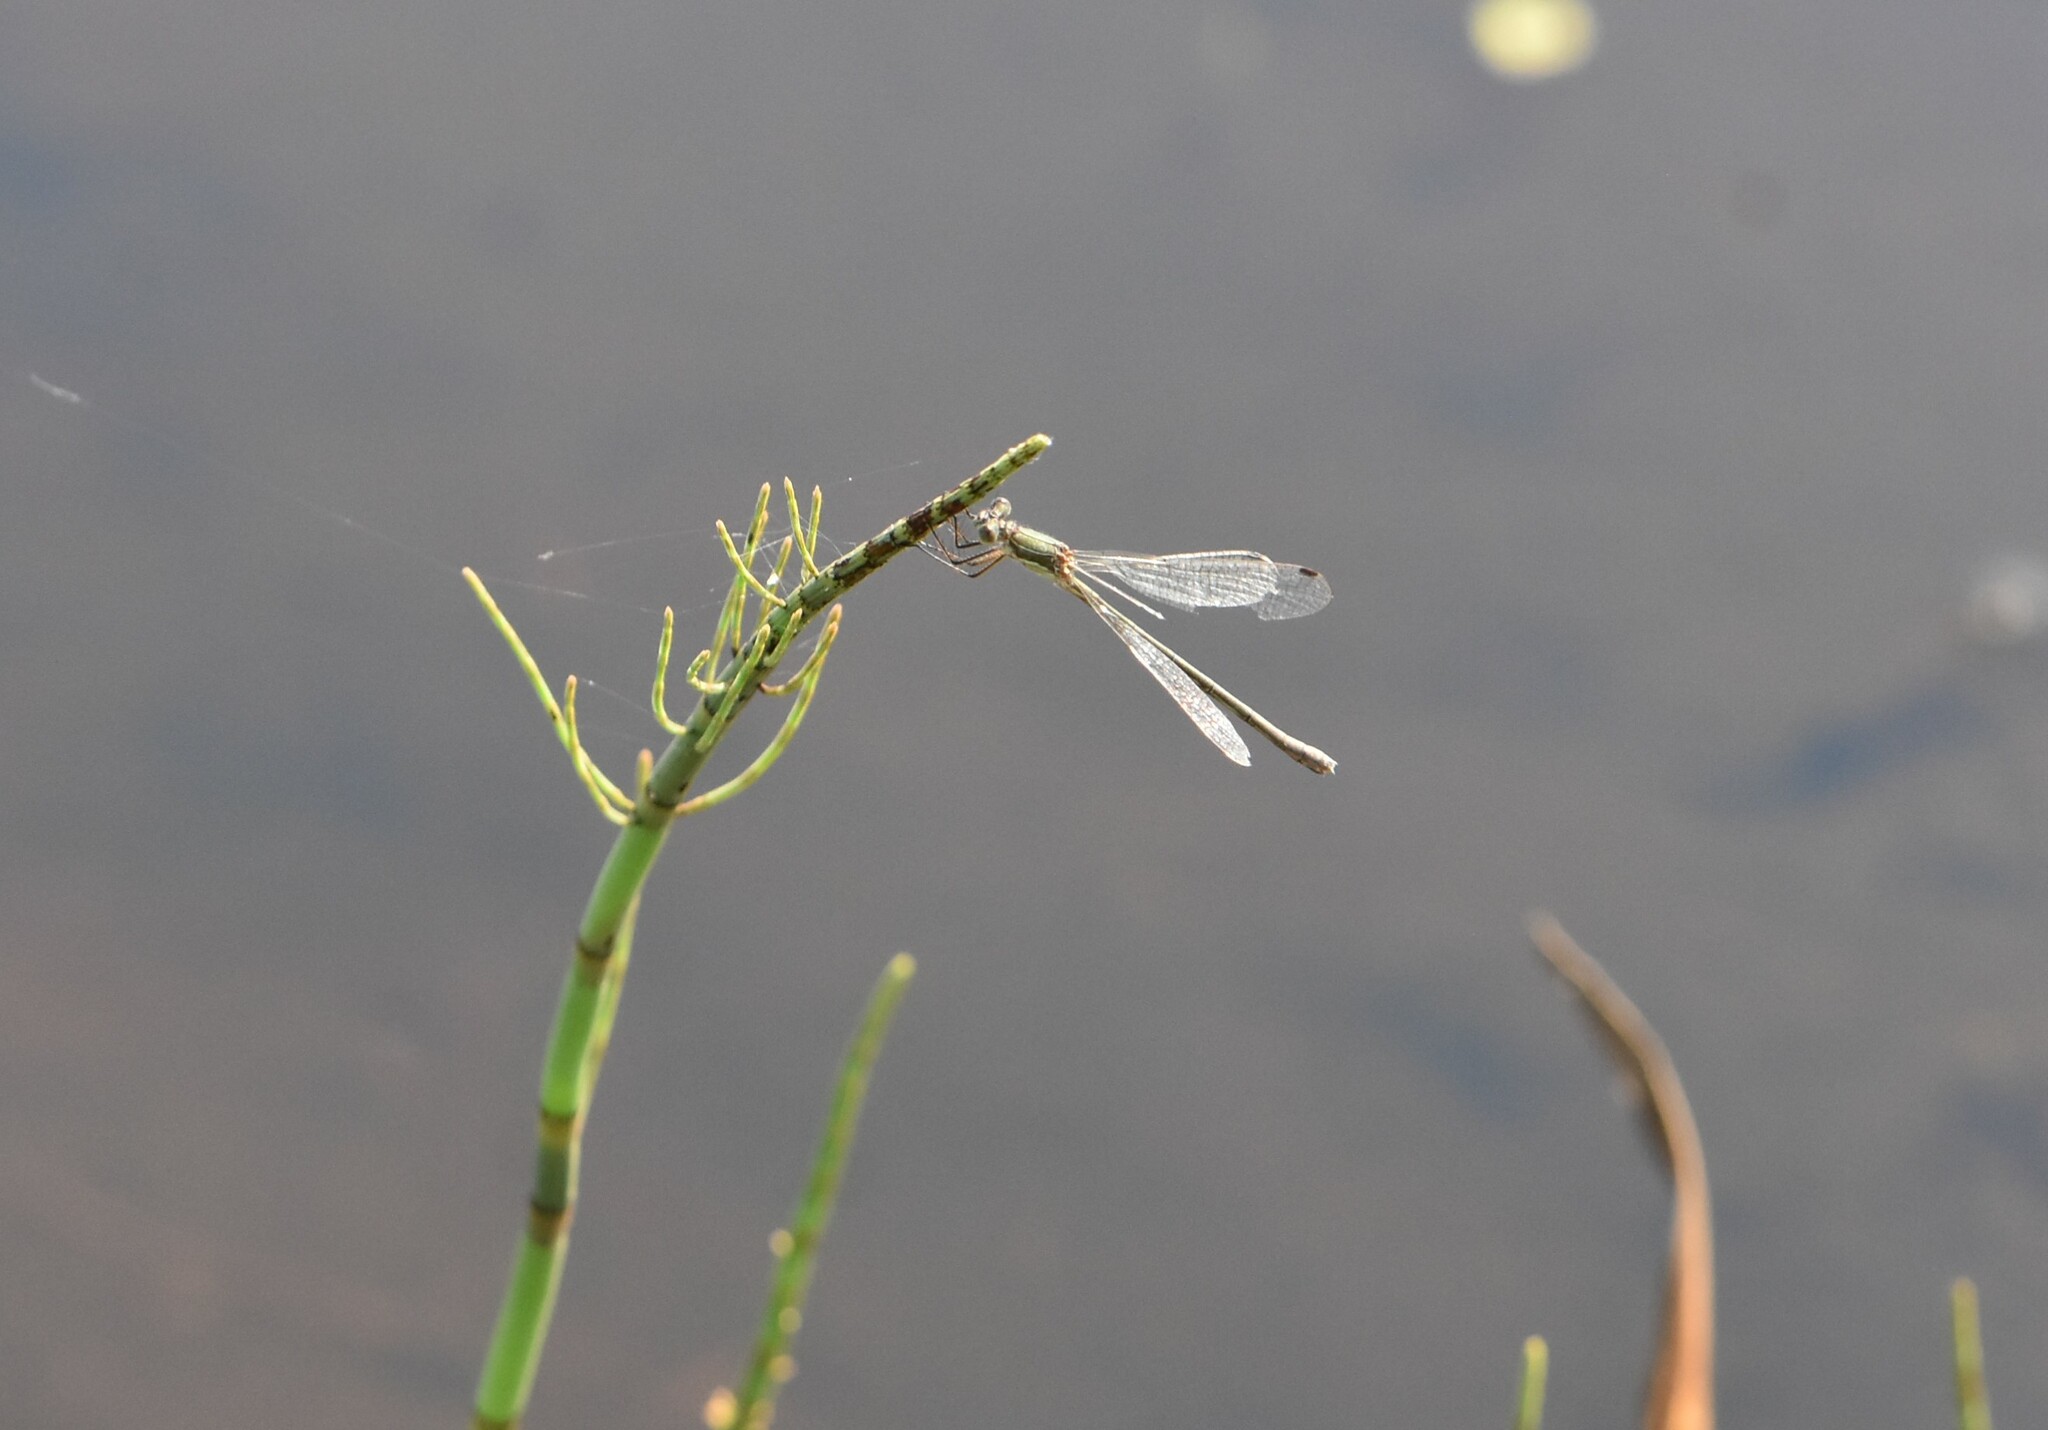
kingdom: Animalia
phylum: Arthropoda
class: Insecta
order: Odonata
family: Lestidae
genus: Lestes
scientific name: Lestes sponsa
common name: Common spreadwing
